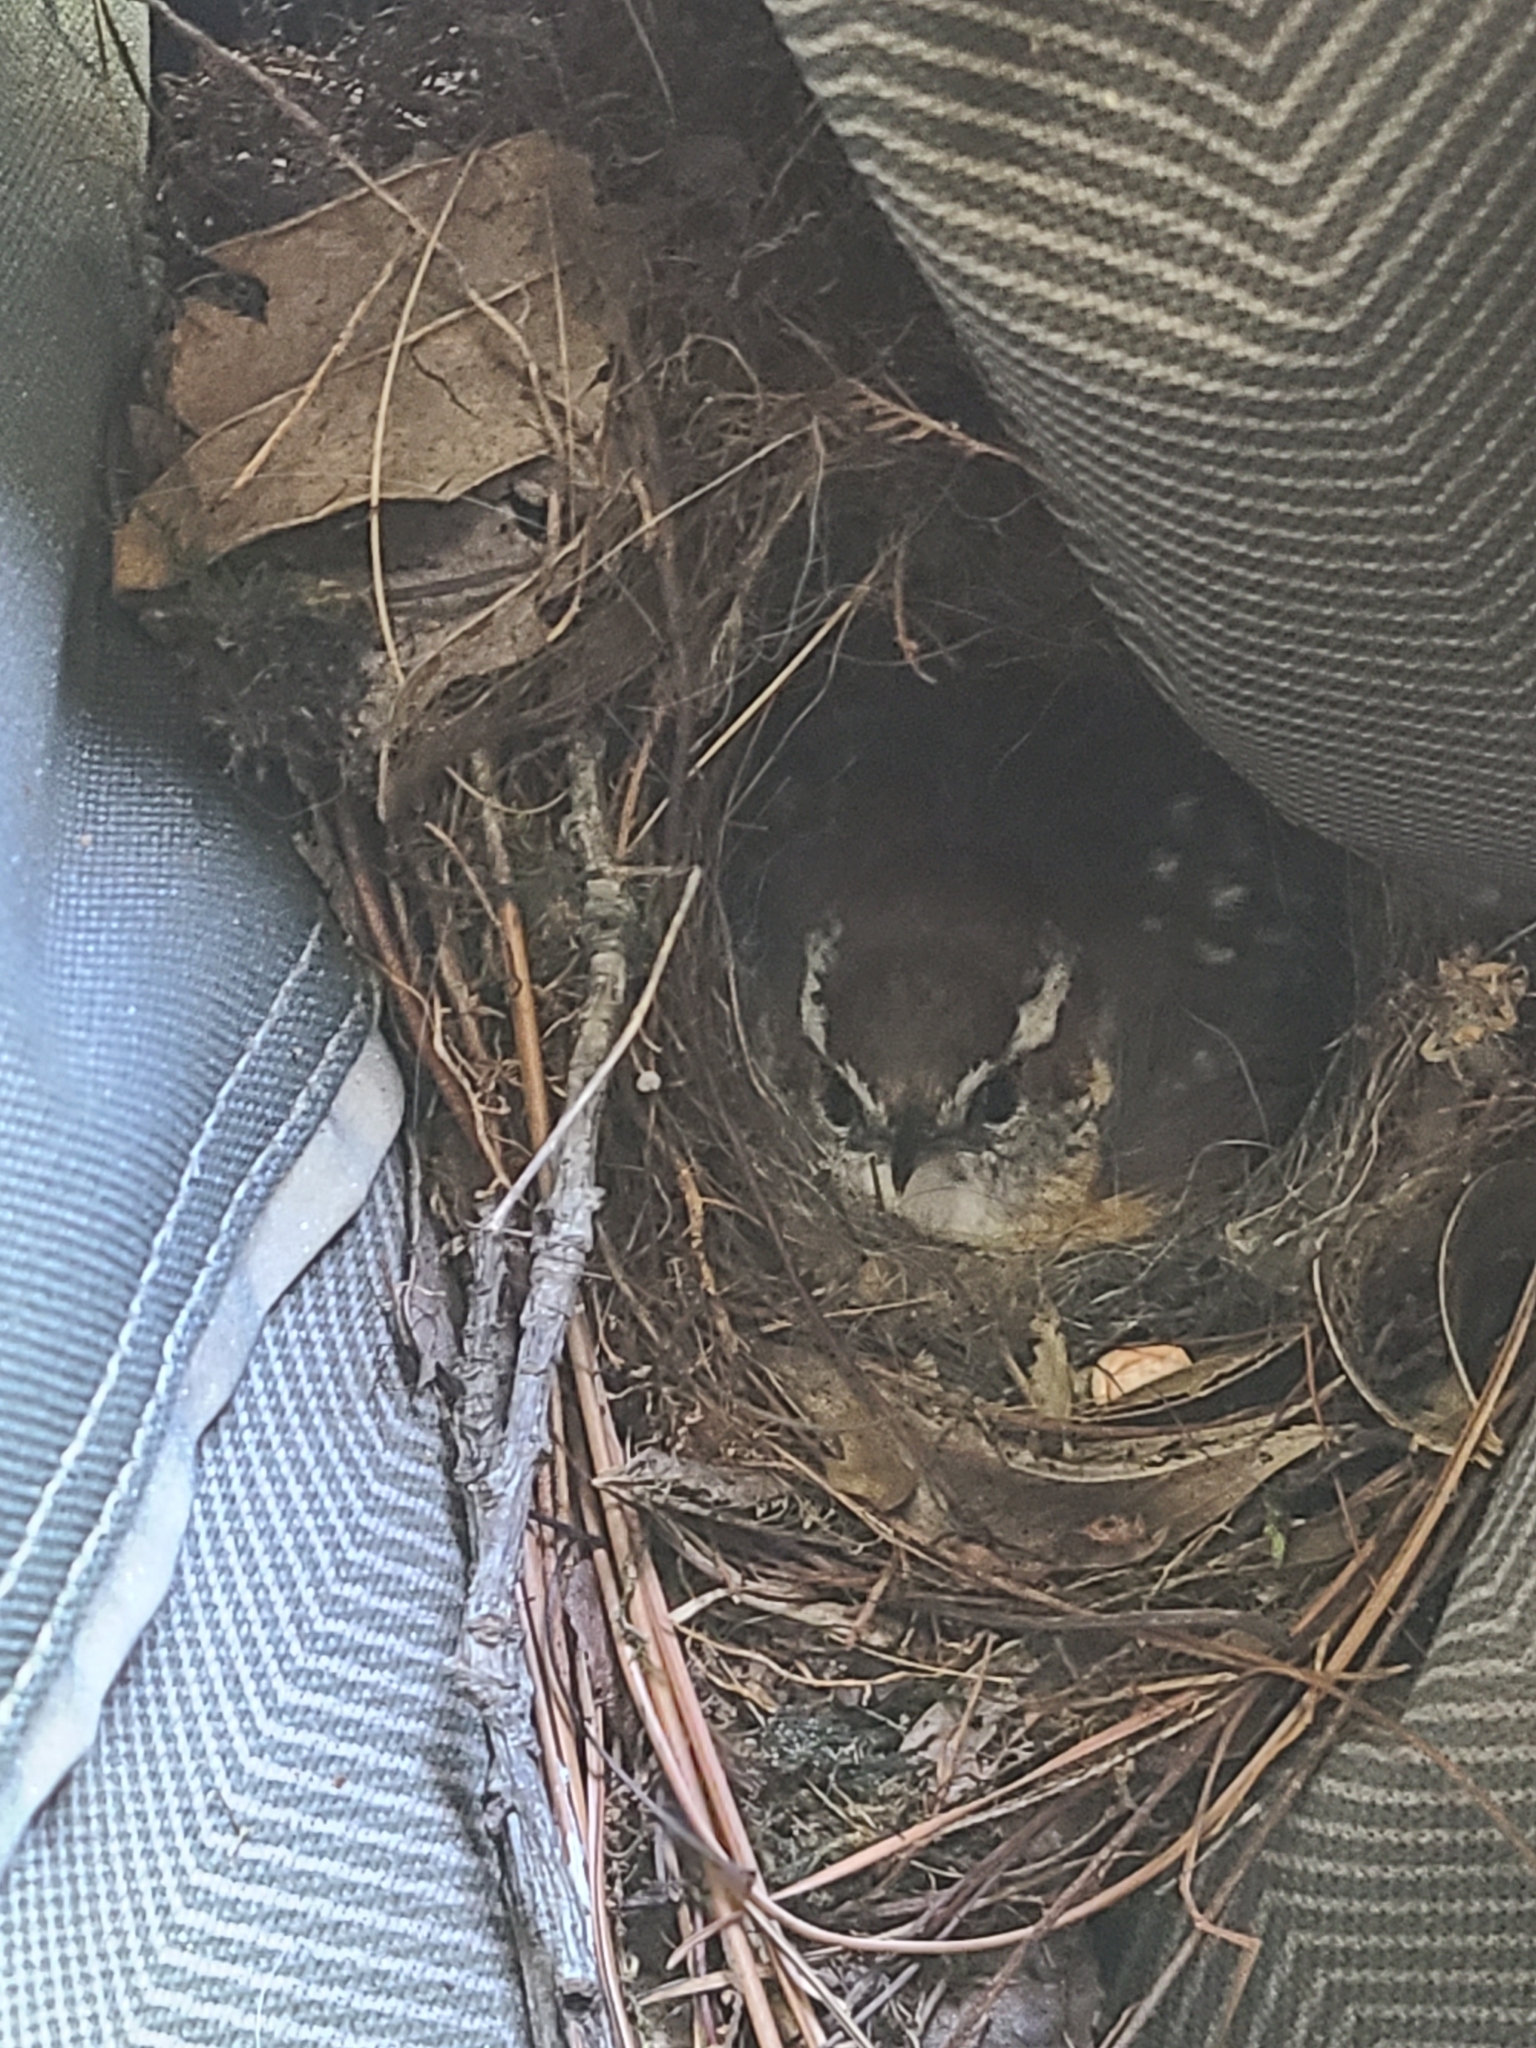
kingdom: Animalia
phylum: Chordata
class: Aves
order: Passeriformes
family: Troglodytidae
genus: Thryothorus
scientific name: Thryothorus ludovicianus
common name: Carolina wren
